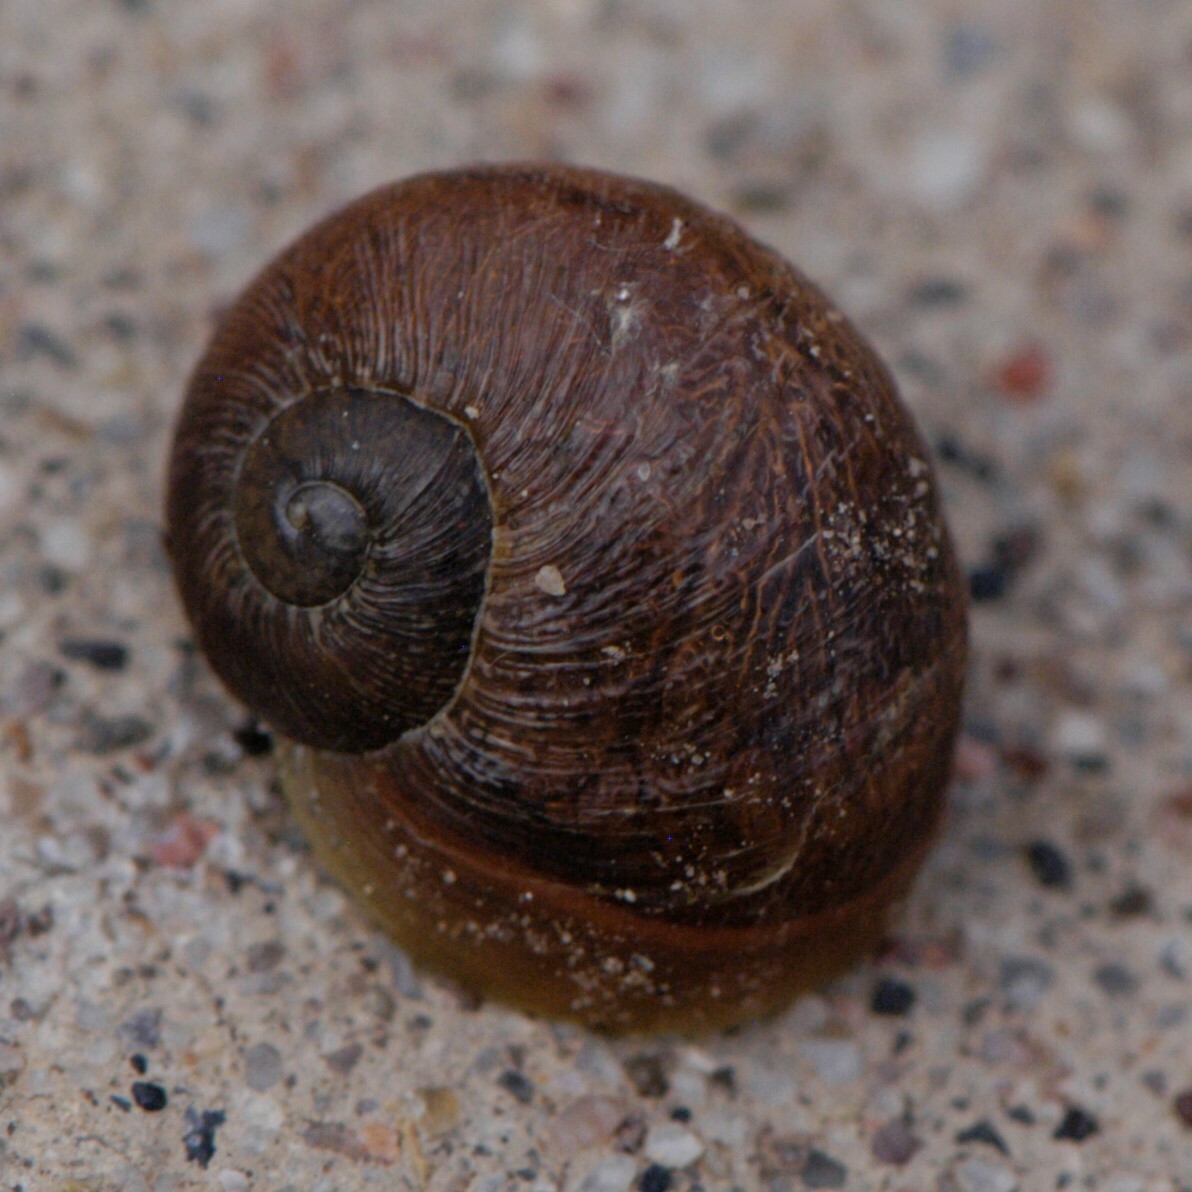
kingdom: Animalia
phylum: Mollusca
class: Gastropoda
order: Stylommatophora
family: Helicidae
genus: Cornu
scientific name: Cornu aspersum
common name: Brown garden snail
